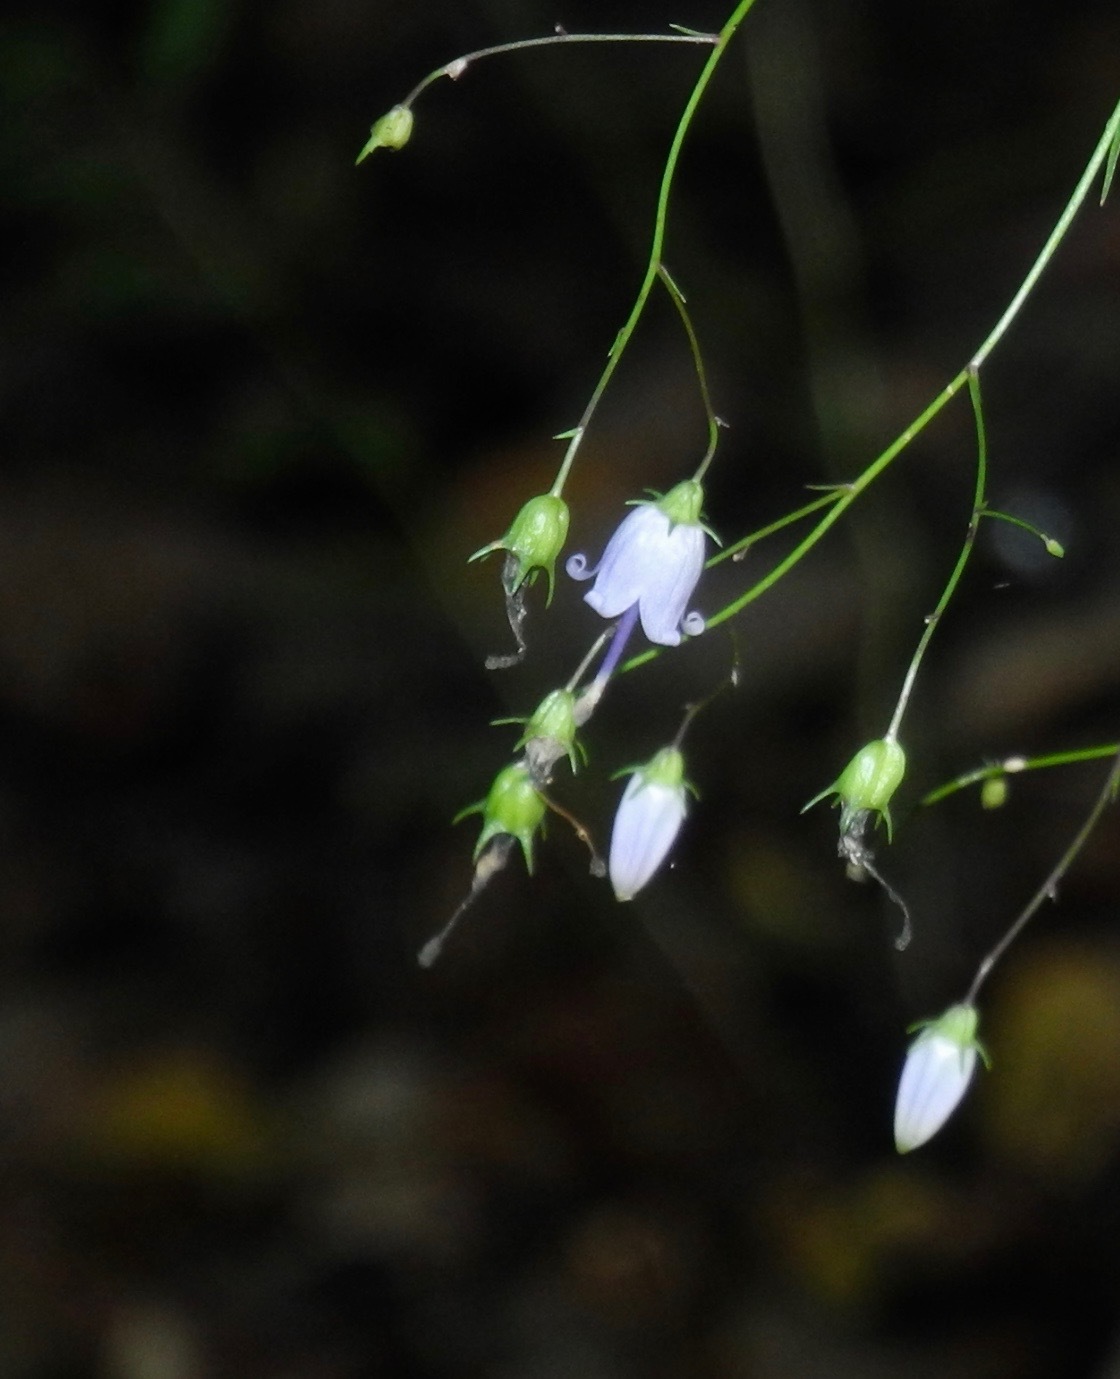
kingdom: Plantae
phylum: Tracheophyta
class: Magnoliopsida
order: Asterales
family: Campanulaceae
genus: Campanula
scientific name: Campanula divaricata
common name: Appalachian bellflower
